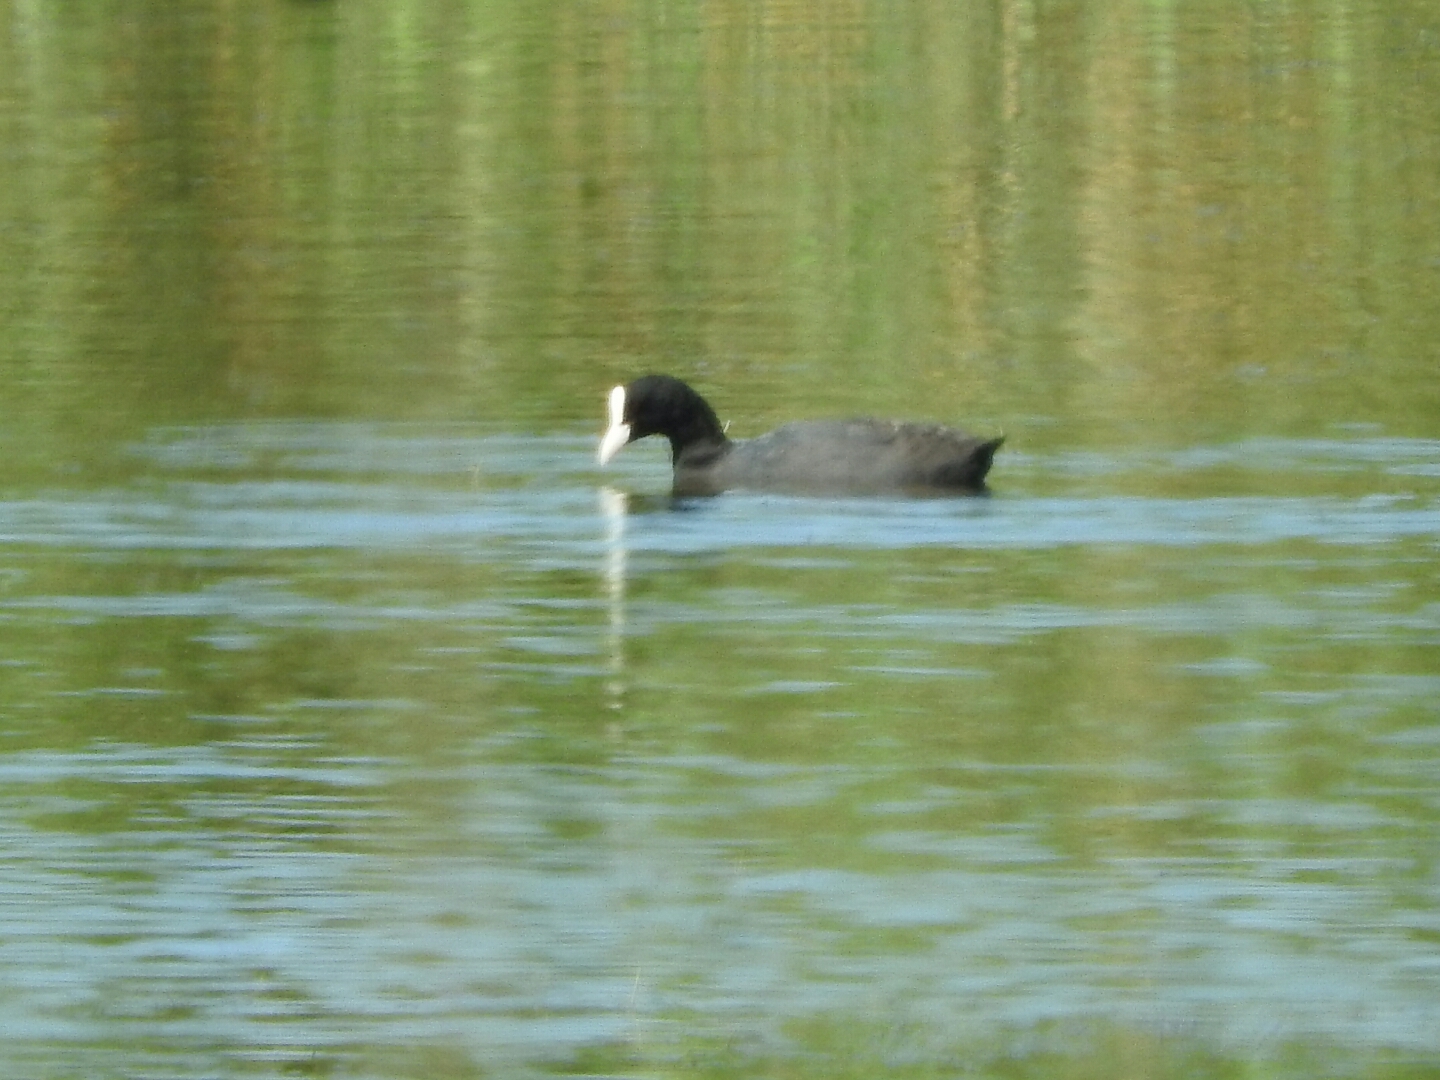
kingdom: Animalia
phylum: Chordata
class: Aves
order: Gruiformes
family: Rallidae
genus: Fulica
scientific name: Fulica atra
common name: Eurasian coot
